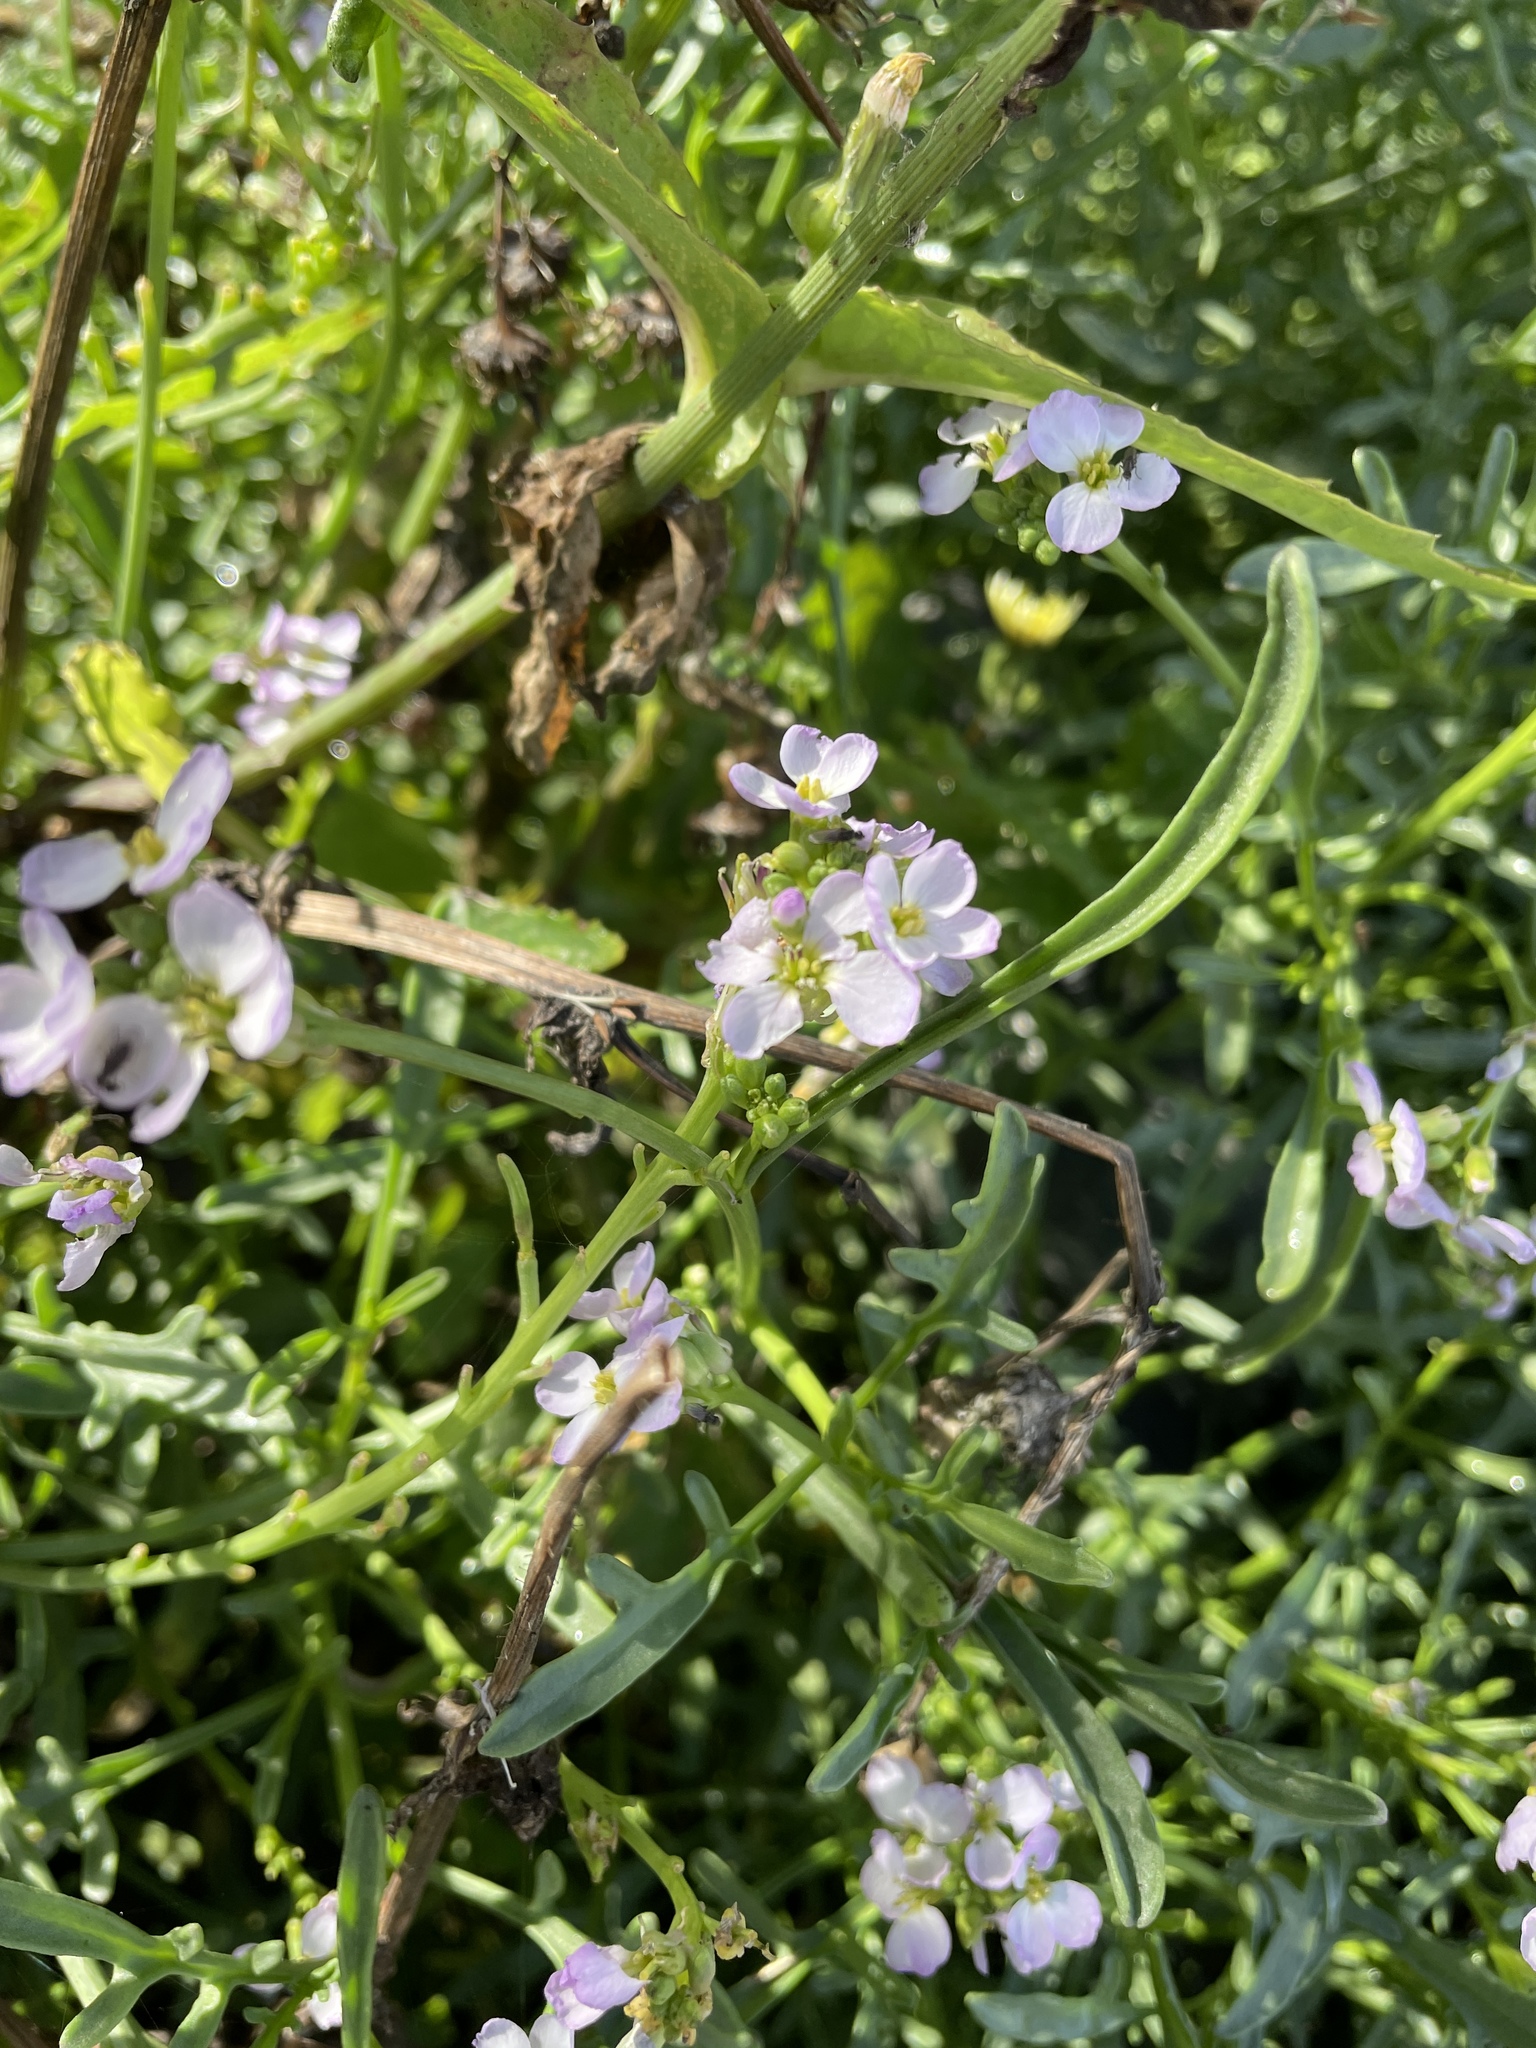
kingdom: Plantae
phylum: Tracheophyta
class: Magnoliopsida
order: Brassicales
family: Brassicaceae
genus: Cakile
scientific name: Cakile maritima
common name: Sea rocket
